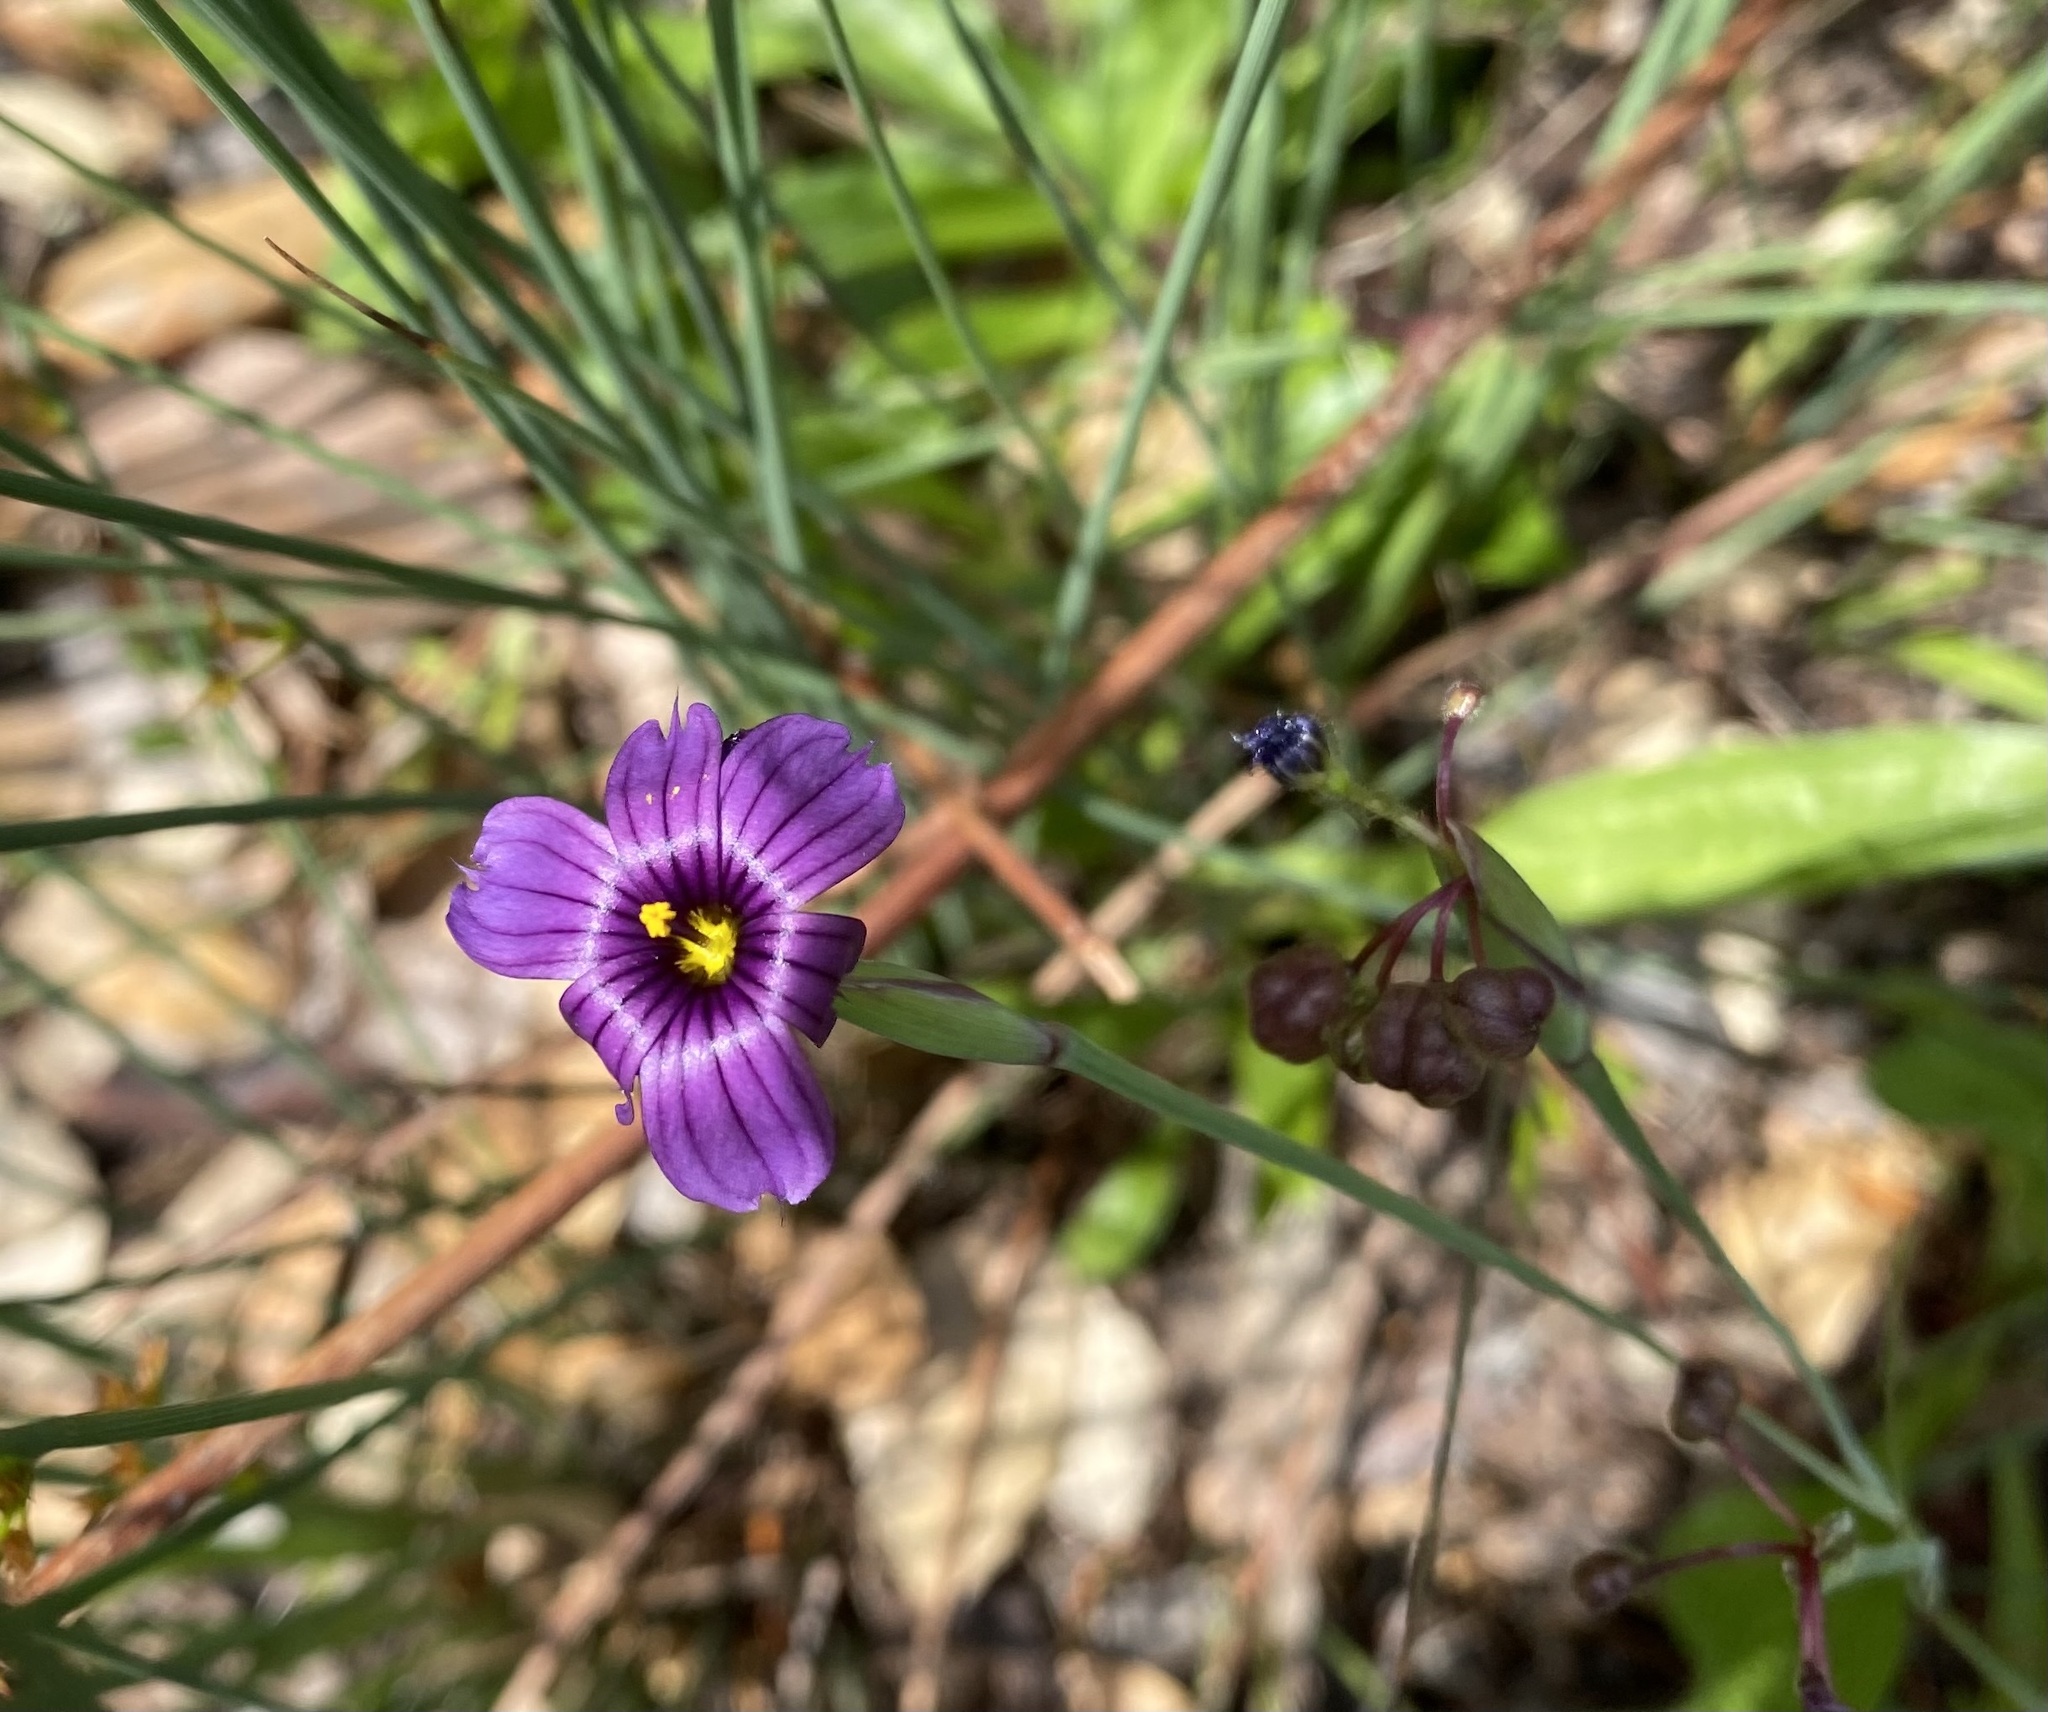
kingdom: Plantae
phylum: Tracheophyta
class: Liliopsida
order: Asparagales
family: Iridaceae
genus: Sisyrinchium
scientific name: Sisyrinchium bellum
